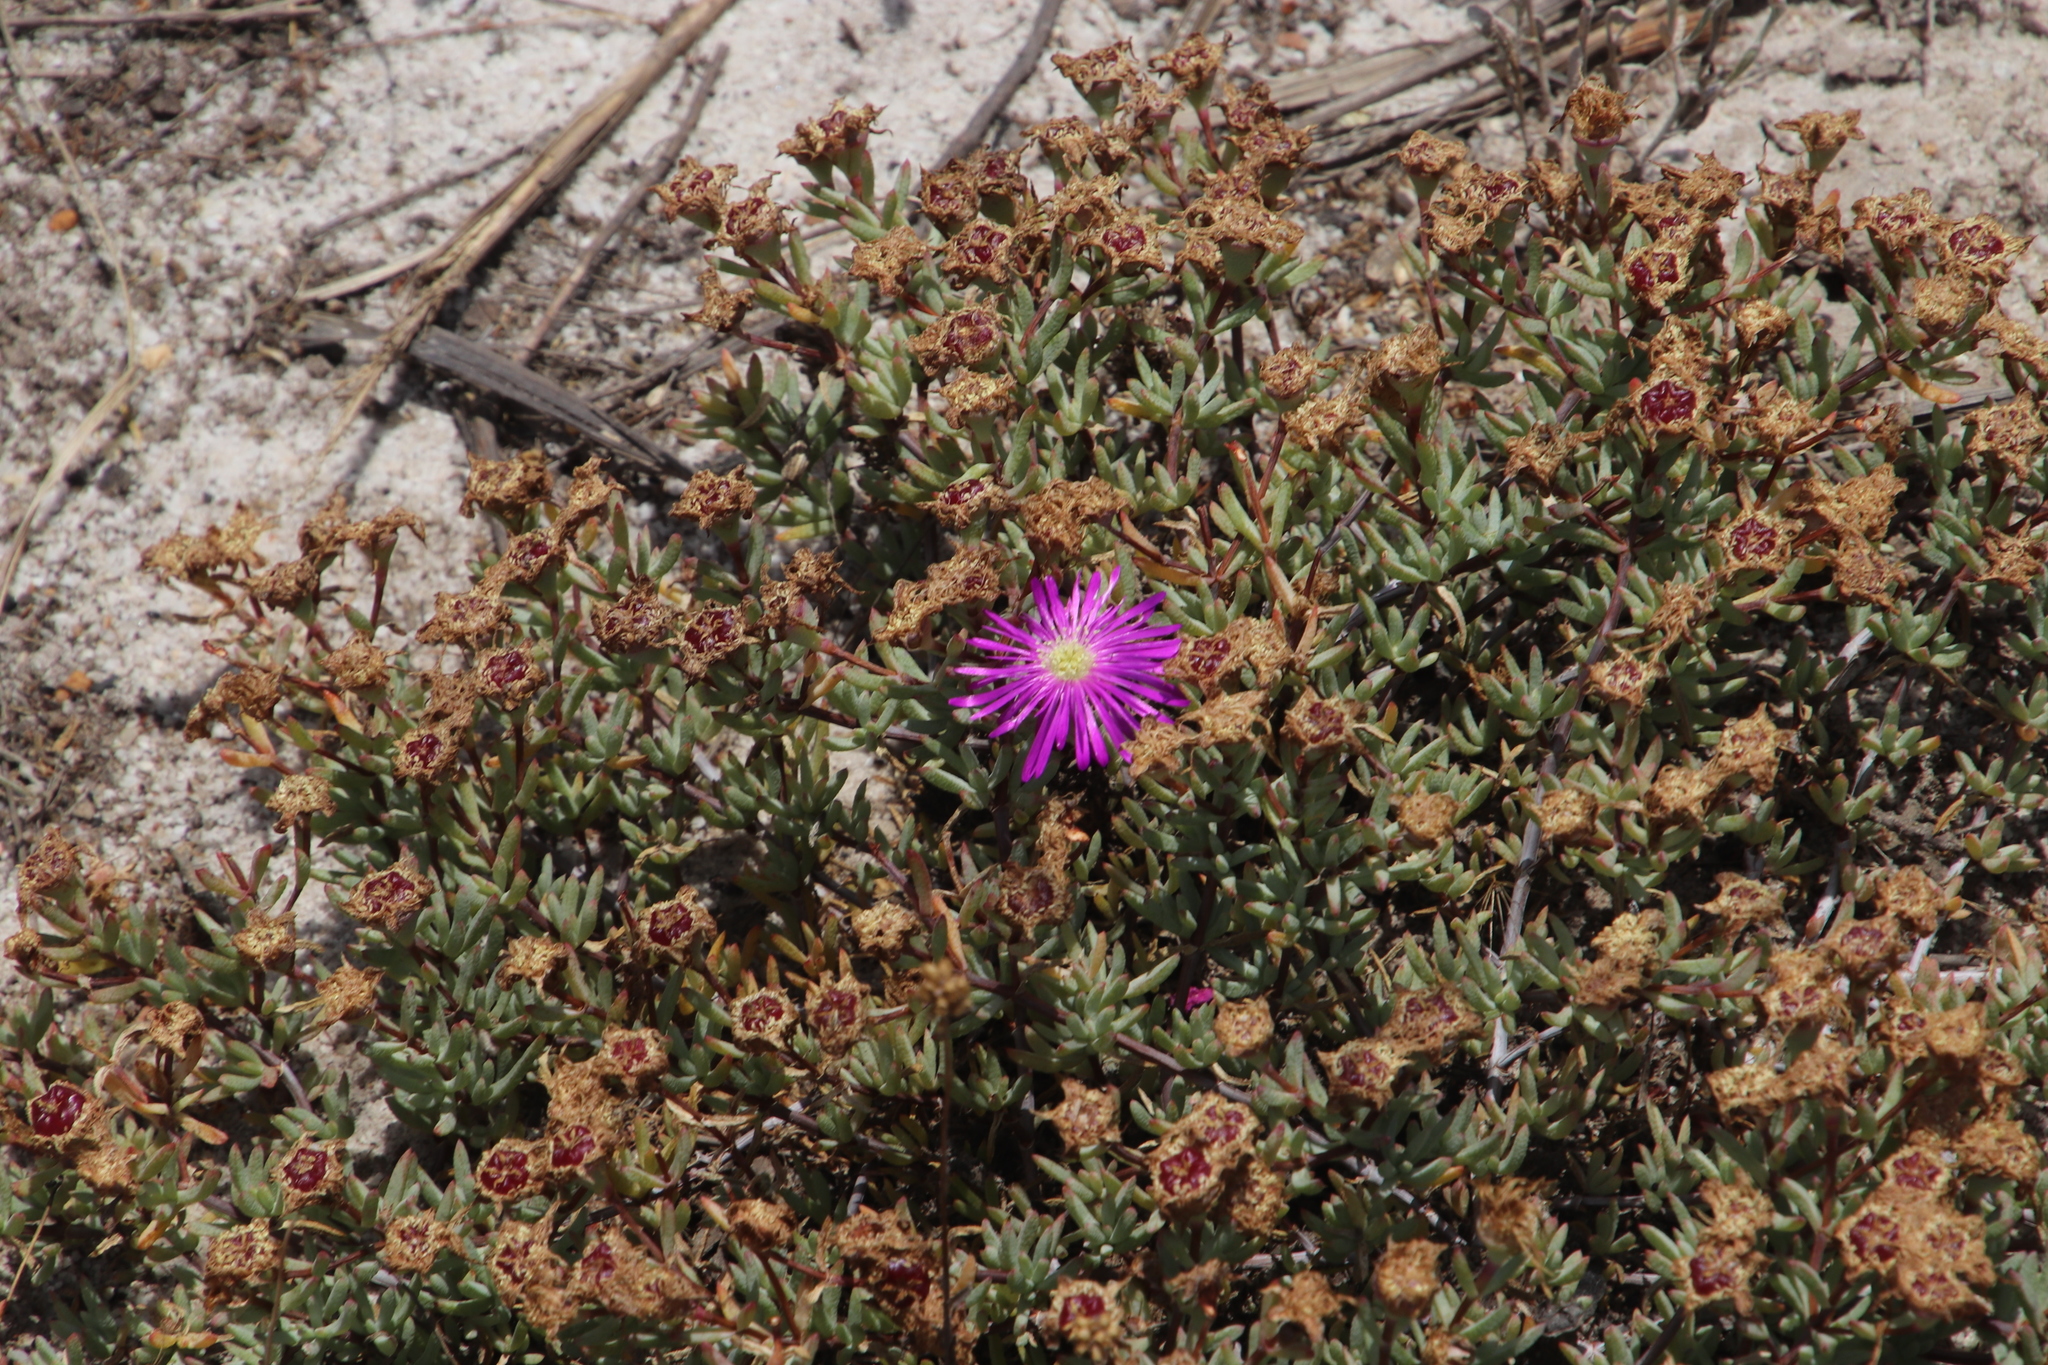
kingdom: Plantae
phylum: Tracheophyta
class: Magnoliopsida
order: Caryophyllales
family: Aizoaceae
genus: Lampranthus
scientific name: Lampranthus emarginatus
